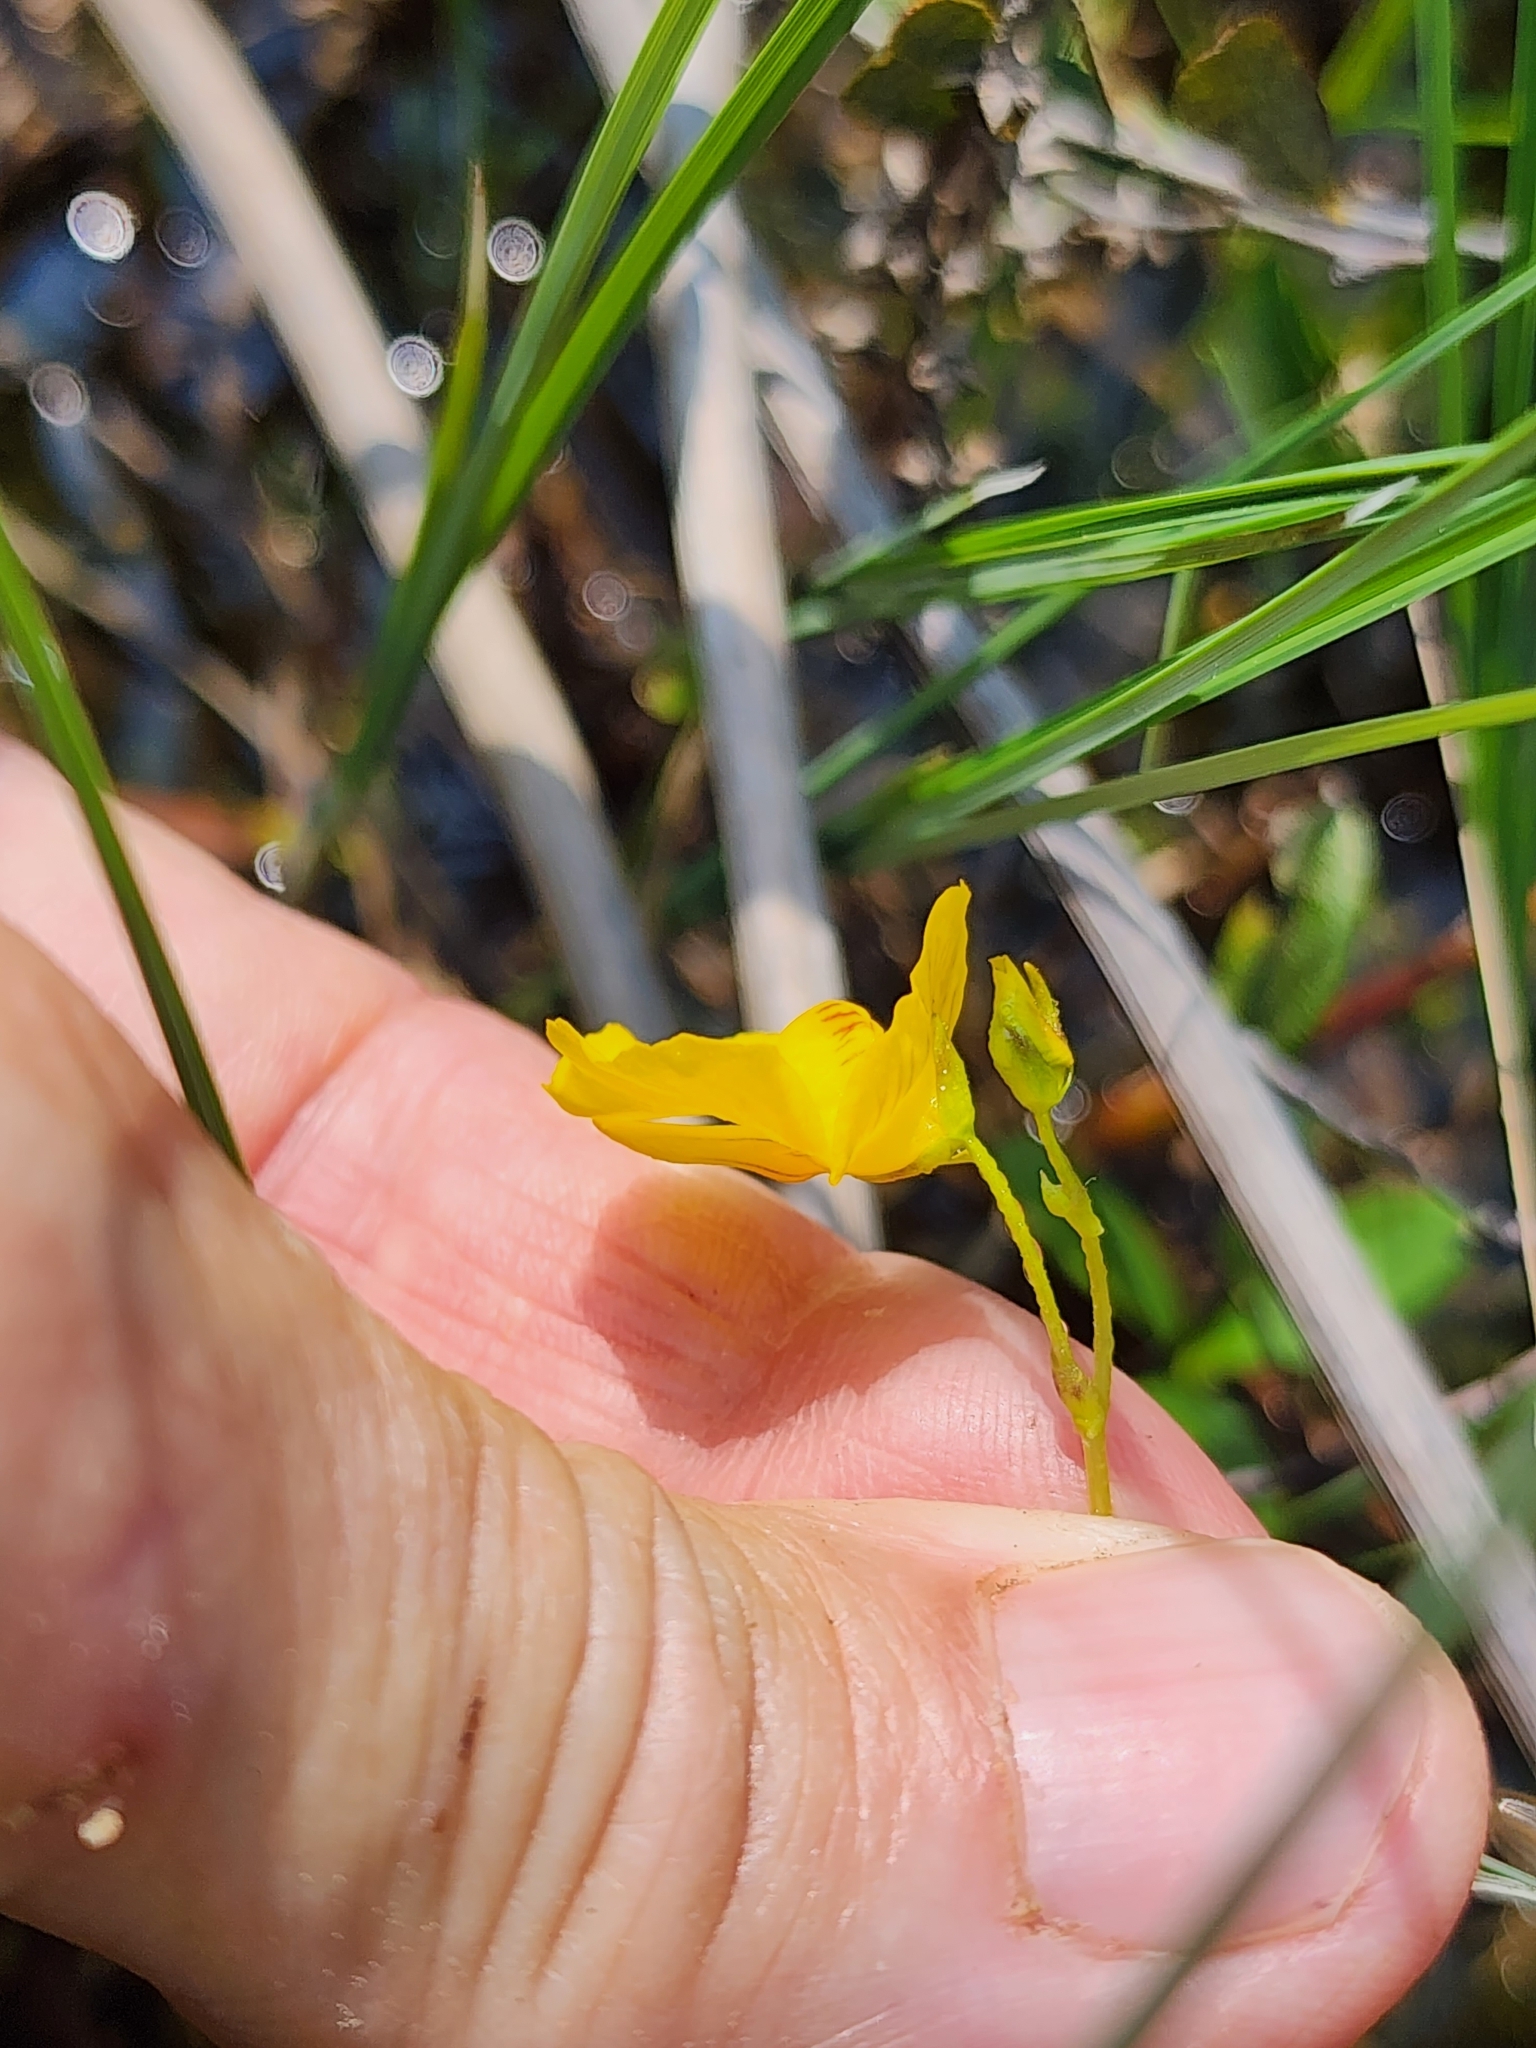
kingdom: Plantae
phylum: Tracheophyta
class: Magnoliopsida
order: Lamiales
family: Lentibulariaceae
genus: Utricularia
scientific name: Utricularia intermedia
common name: Intermediate bladderwort
